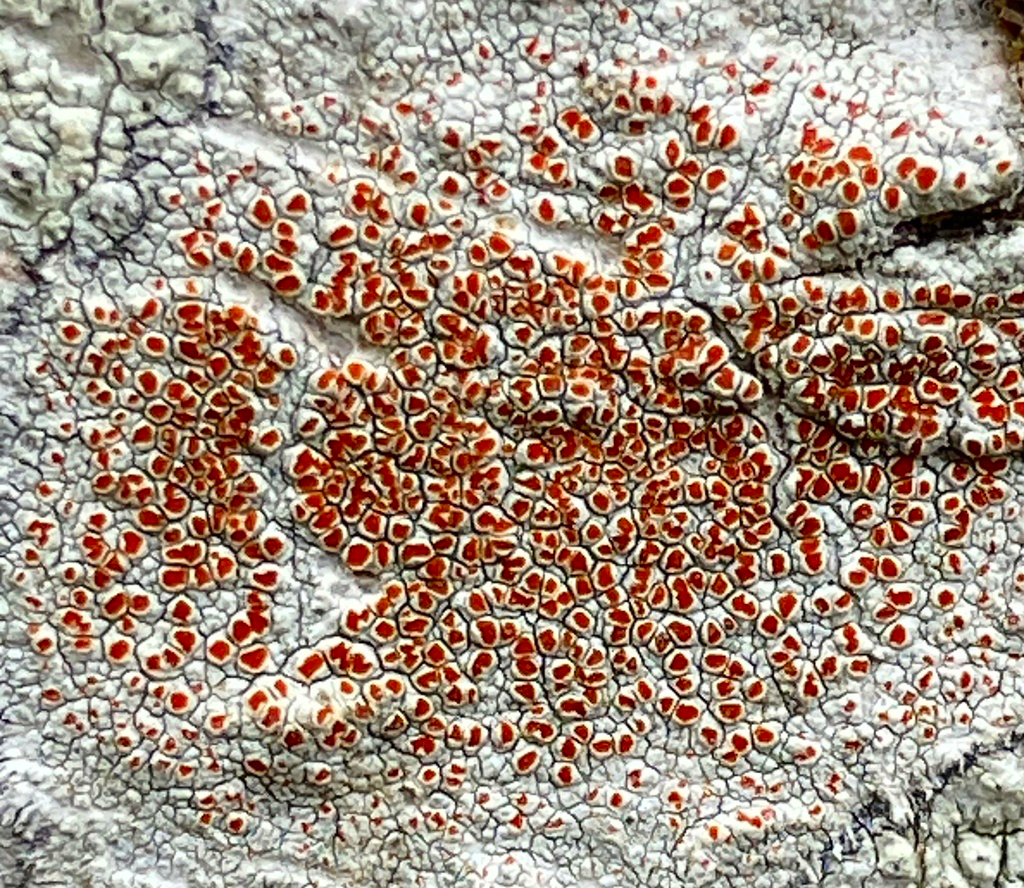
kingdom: Fungi
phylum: Ascomycota
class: Lecanoromycetes
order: Lecanorales
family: Haematommataceae
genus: Haematomma
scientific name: Haematomma
